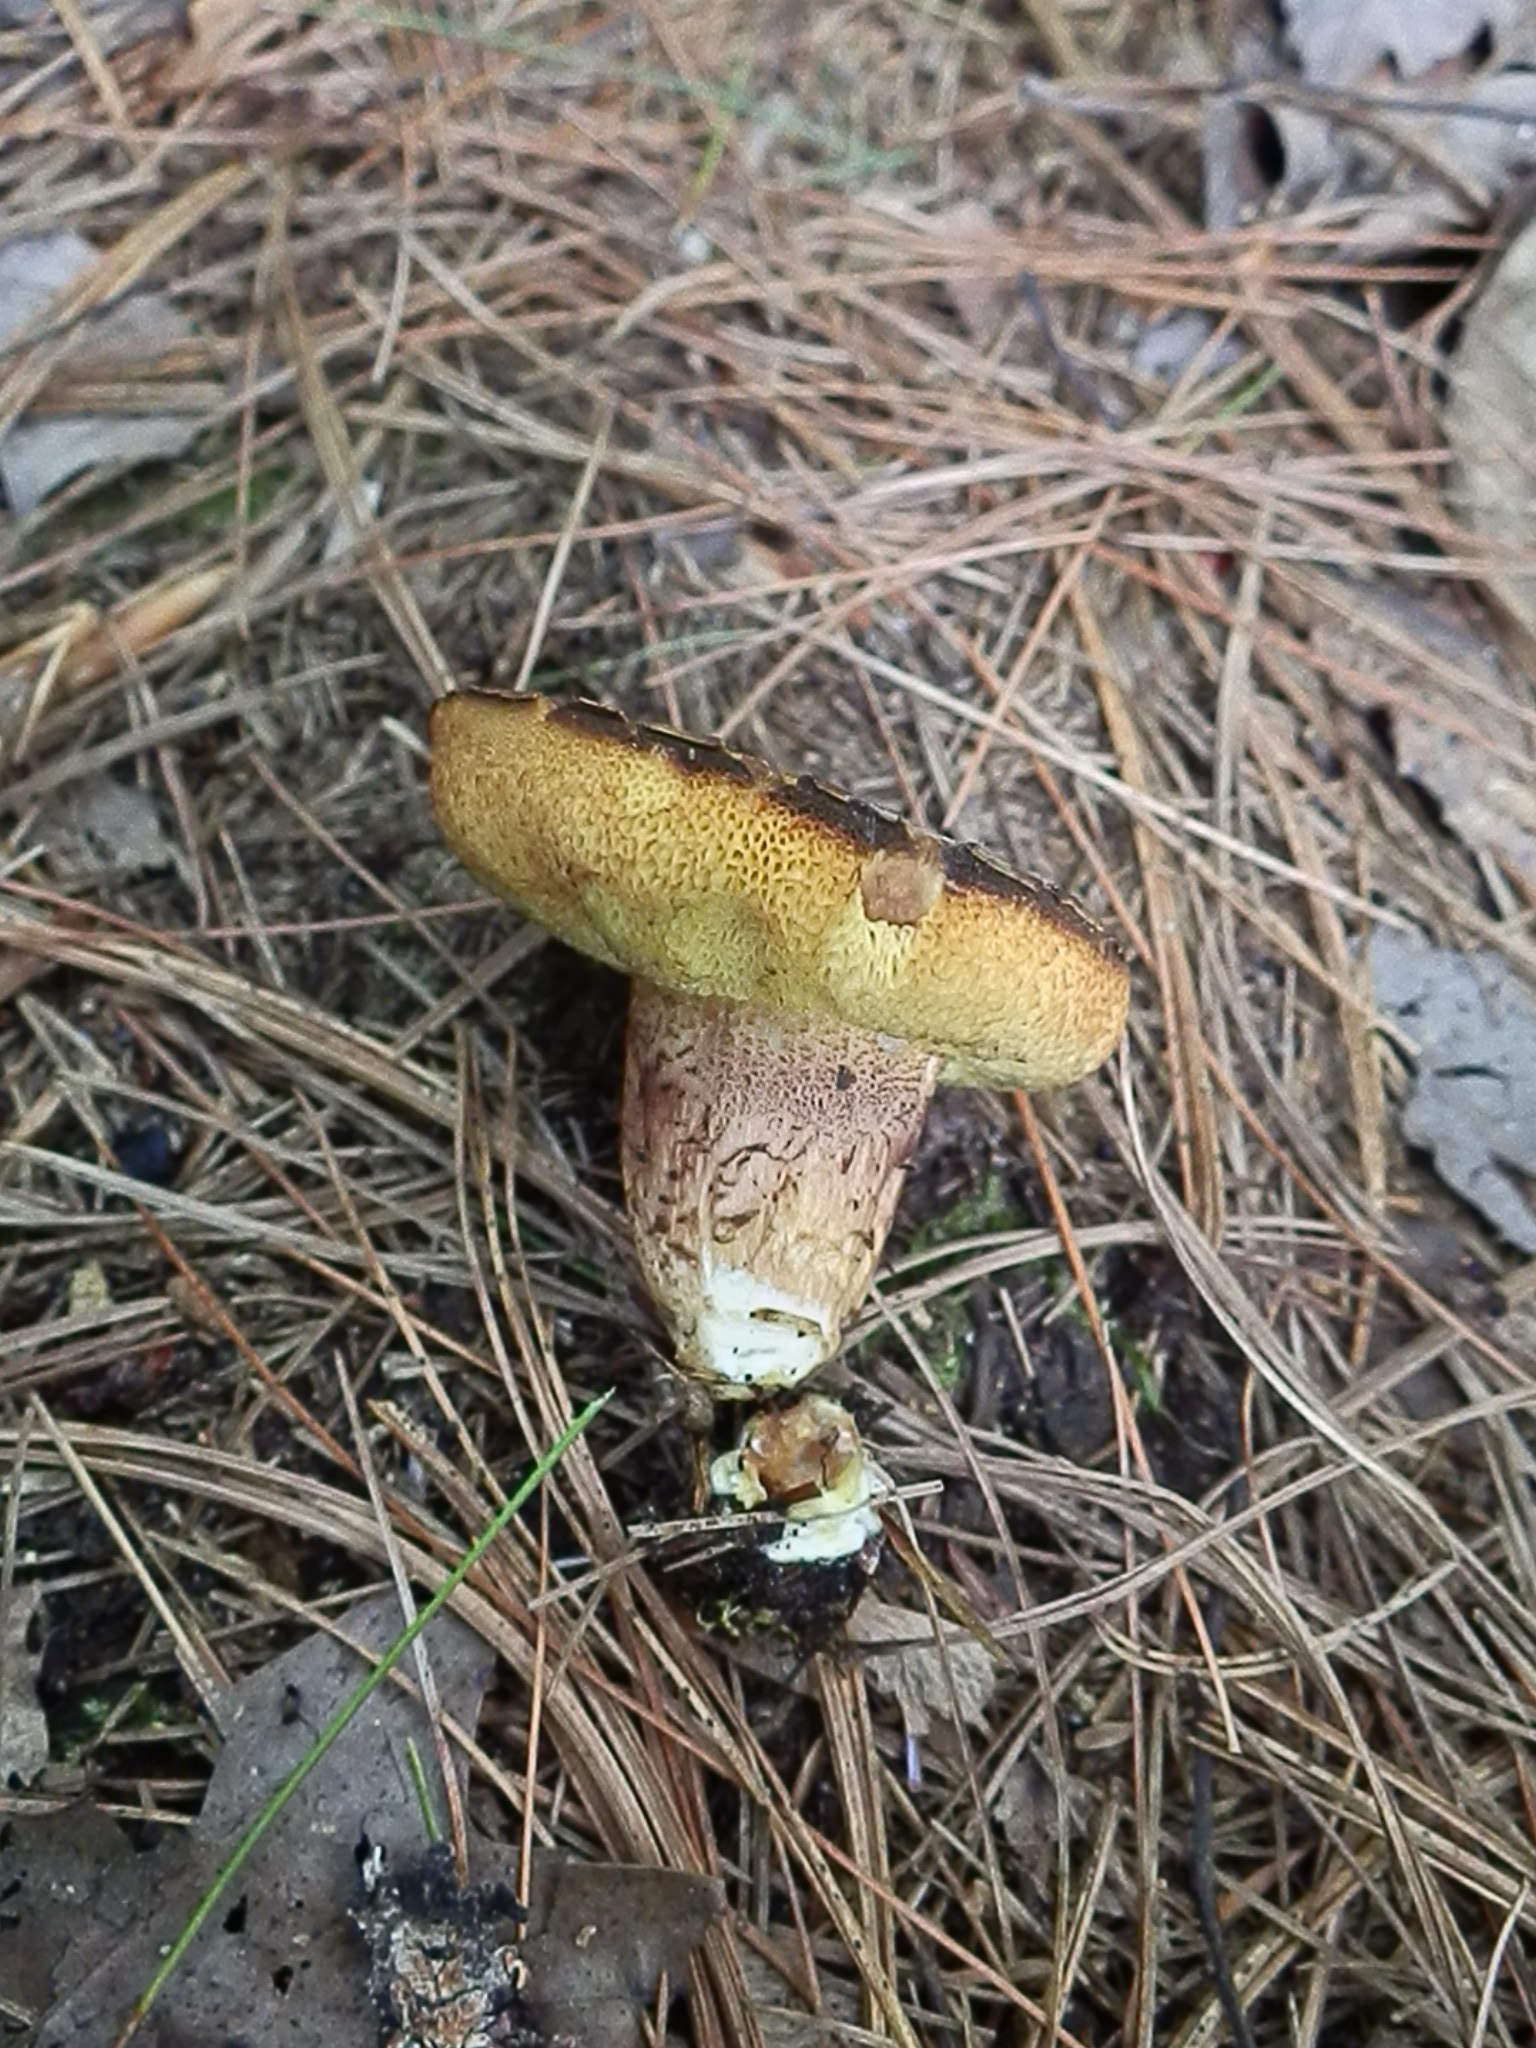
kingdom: Fungi
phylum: Basidiomycota
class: Agaricomycetes
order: Boletales
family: Boletaceae
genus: Boletellus
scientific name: Boletellus chrysenteroides
